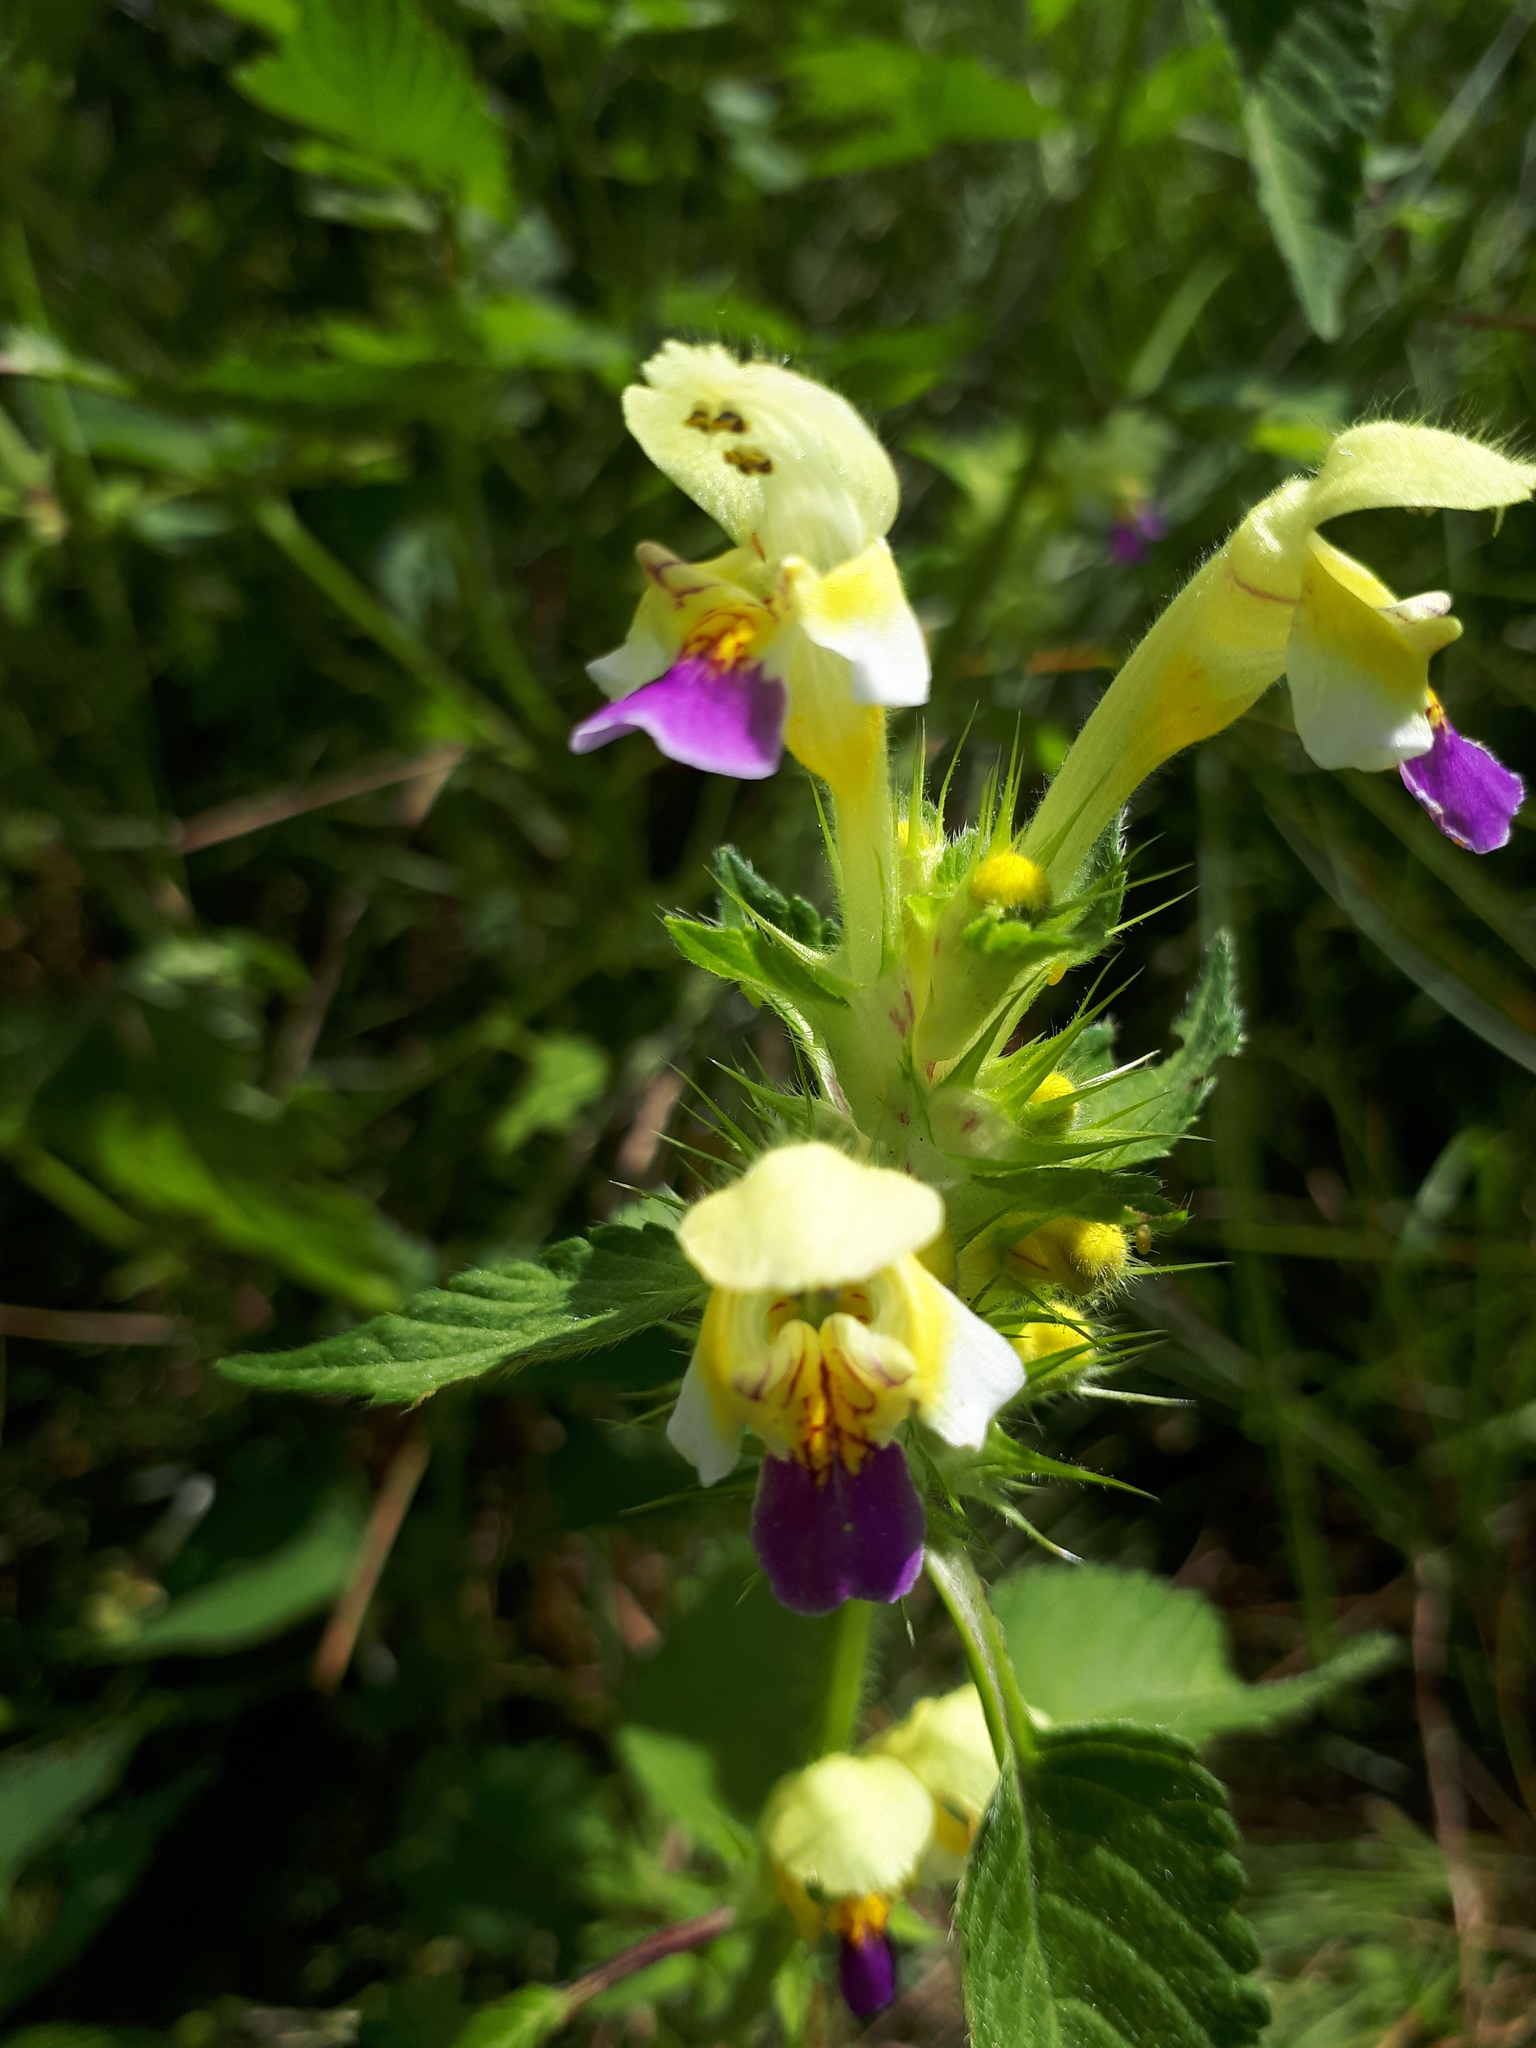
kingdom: Plantae
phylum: Tracheophyta
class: Magnoliopsida
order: Lamiales
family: Lamiaceae
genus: Galeopsis
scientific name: Galeopsis speciosa
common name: Large-flowered hemp-nettle
